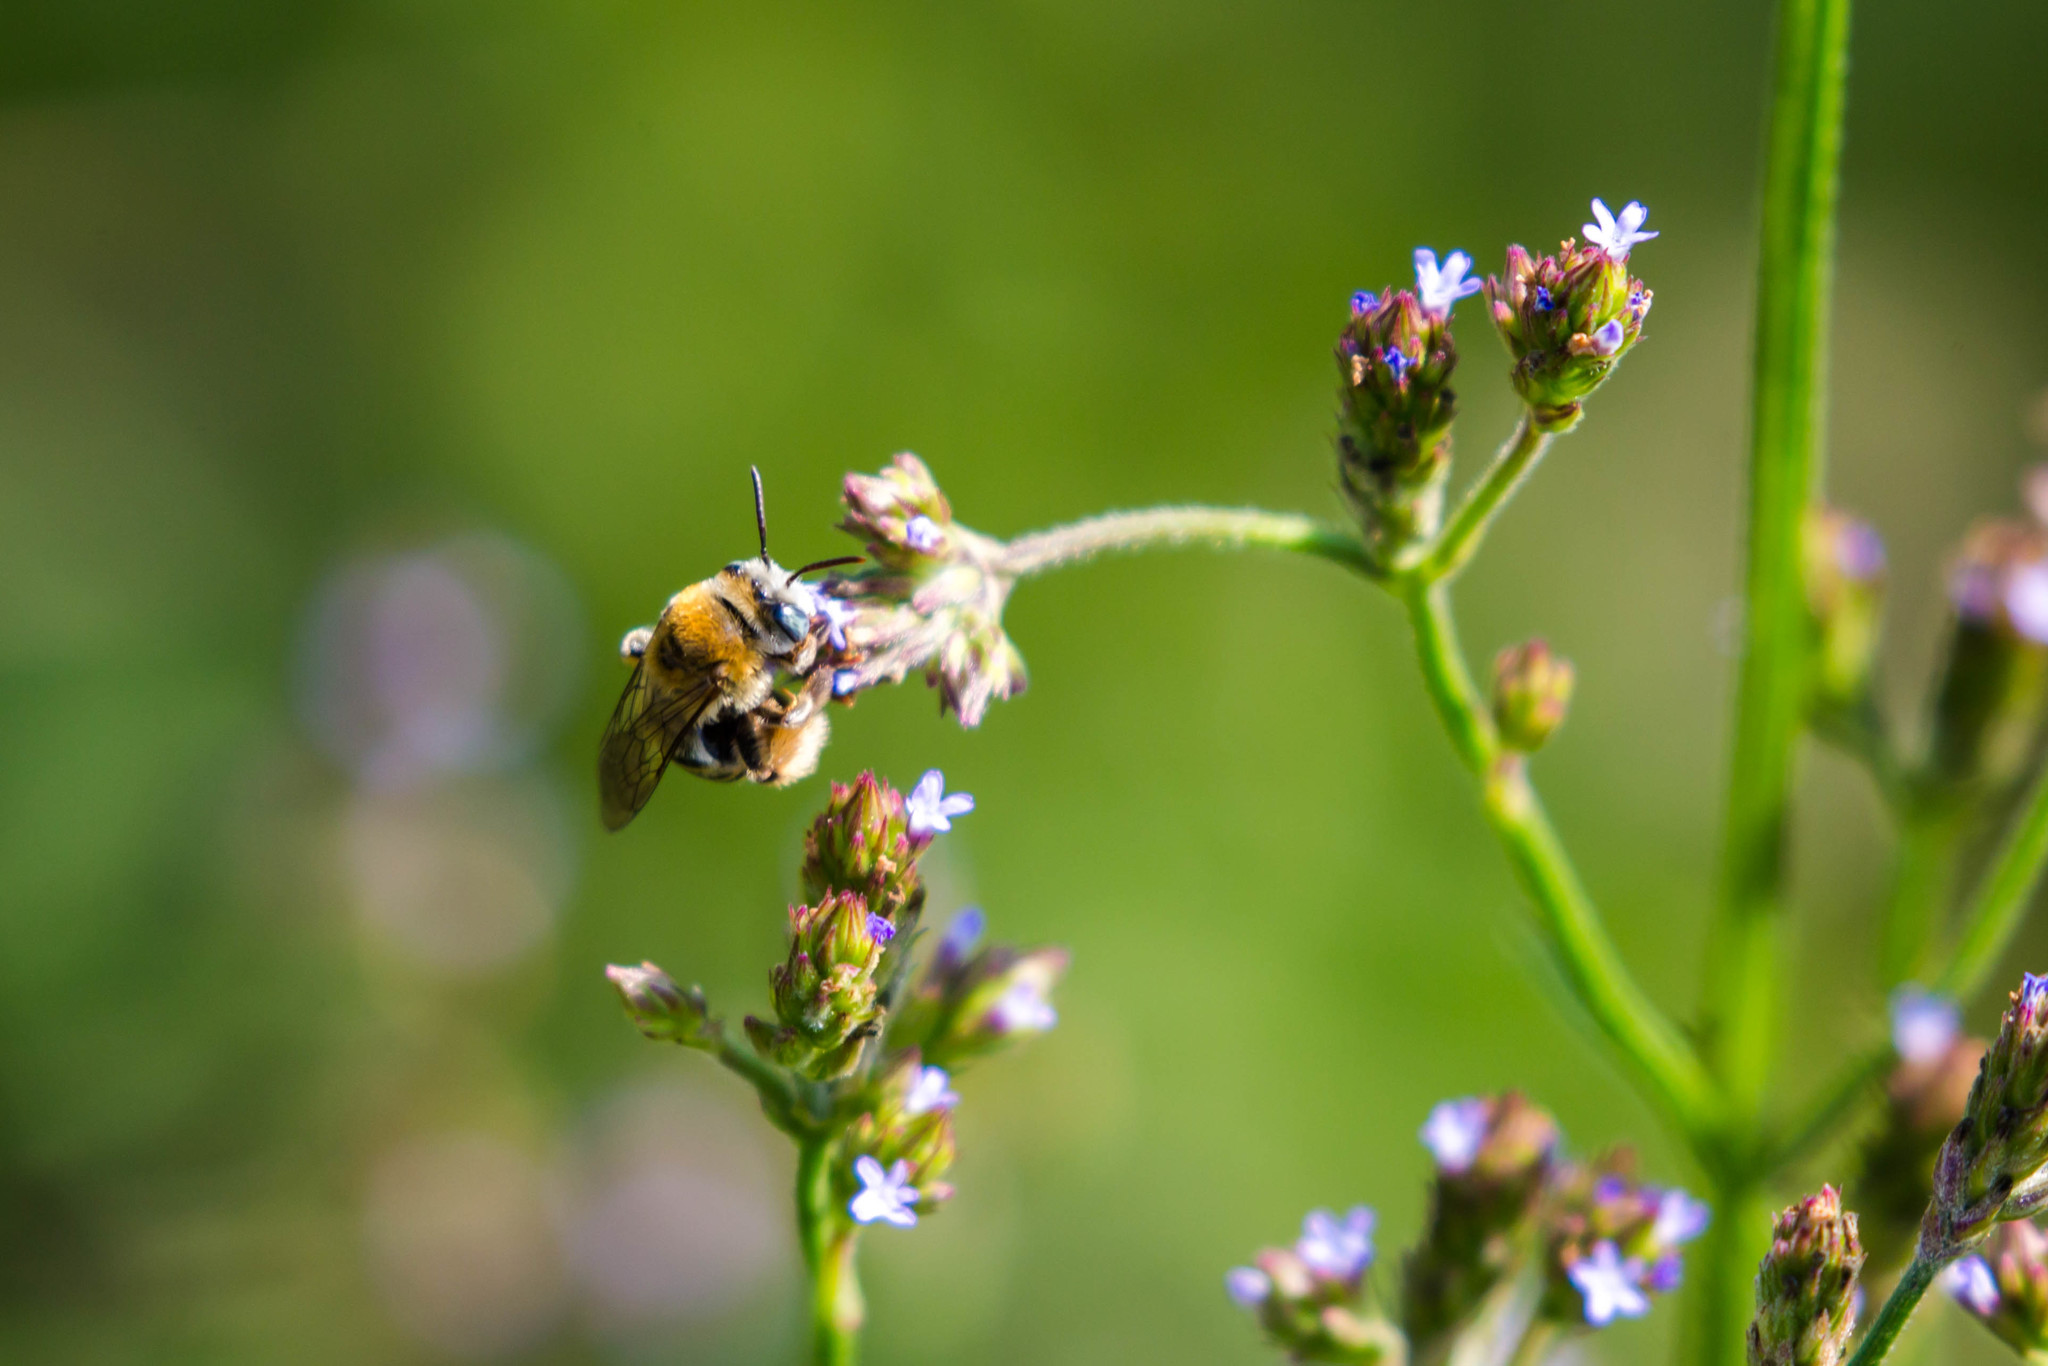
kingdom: Animalia
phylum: Arthropoda
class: Insecta
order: Hymenoptera
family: Apidae
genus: Melissodes
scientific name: Melissodes tepaneca
